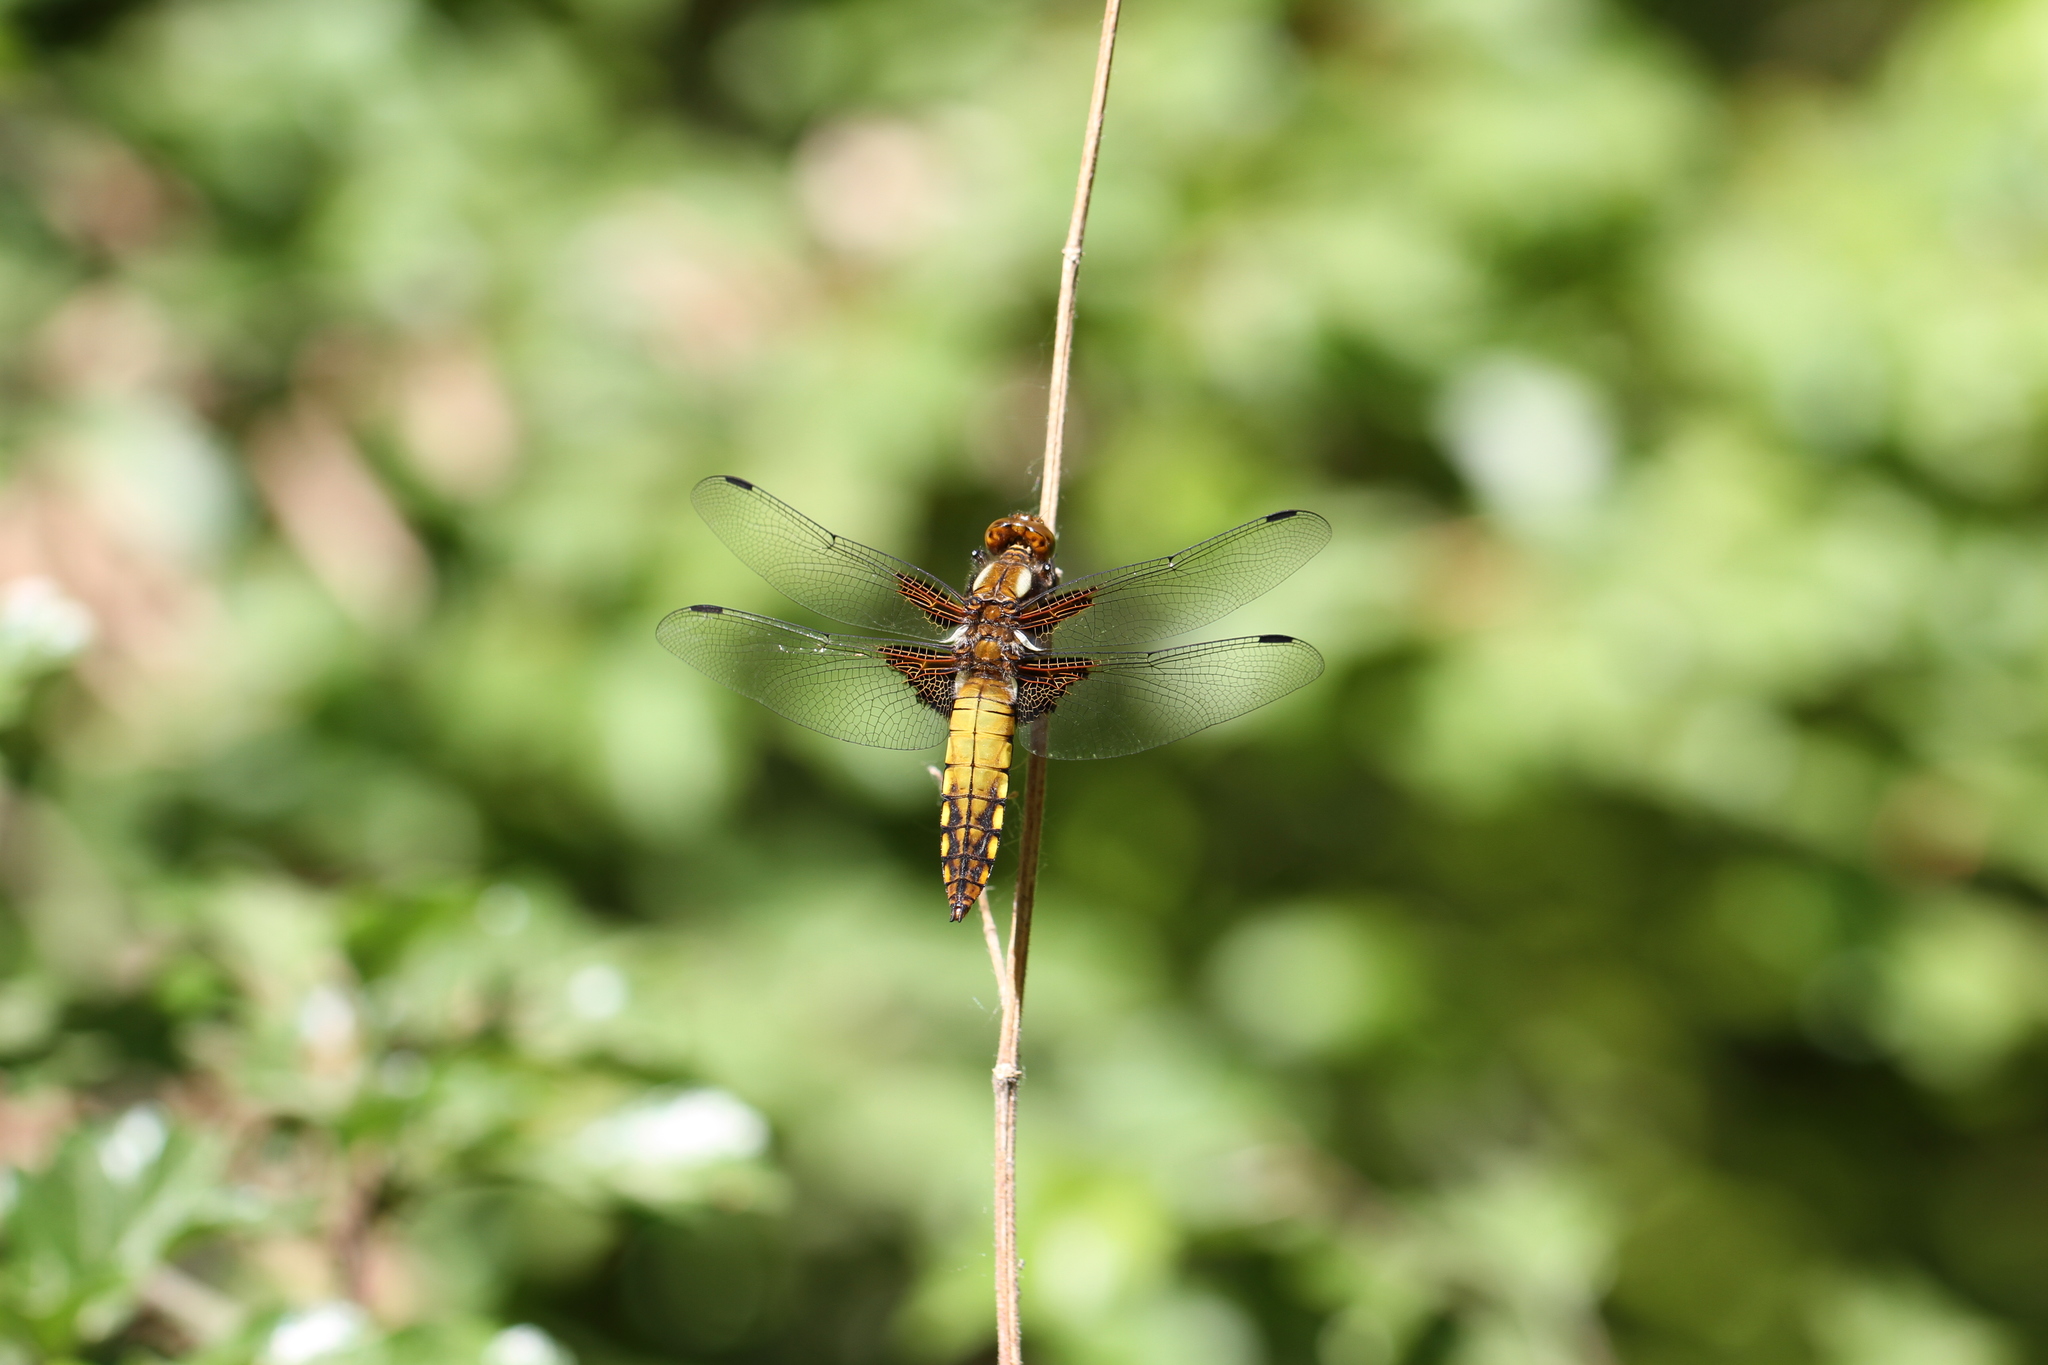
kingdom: Animalia
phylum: Arthropoda
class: Insecta
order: Odonata
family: Libellulidae
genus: Libellula
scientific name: Libellula depressa
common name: Broad-bodied chaser
